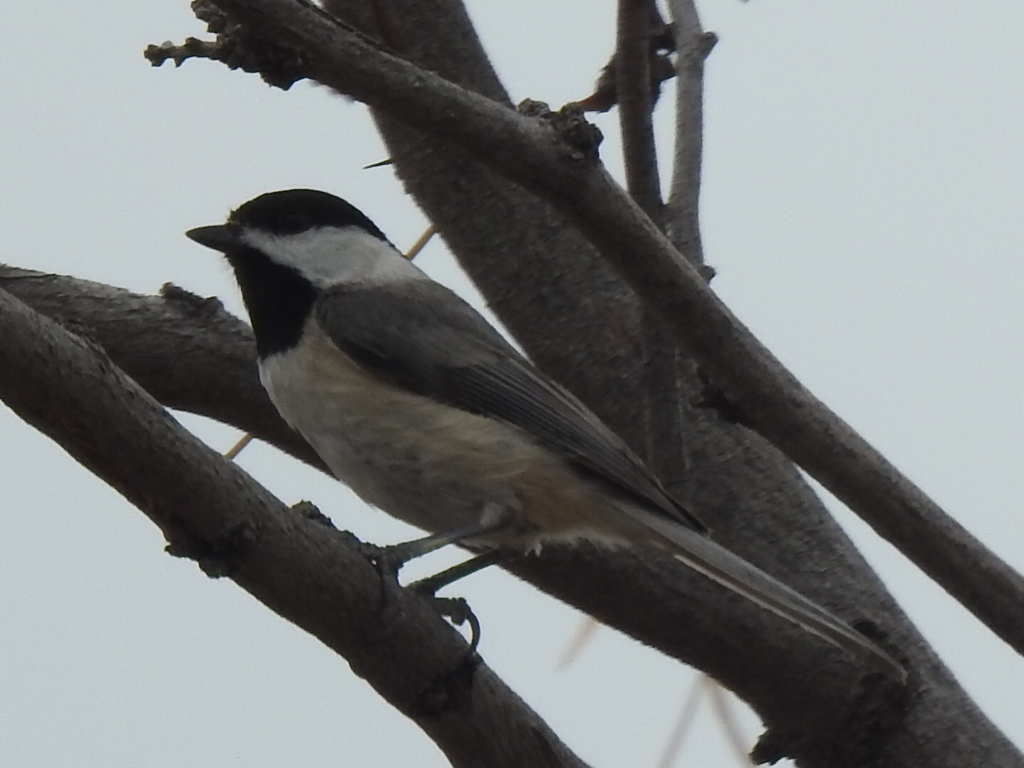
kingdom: Animalia
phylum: Chordata
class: Aves
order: Passeriformes
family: Paridae
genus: Poecile
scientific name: Poecile carolinensis
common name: Carolina chickadee
